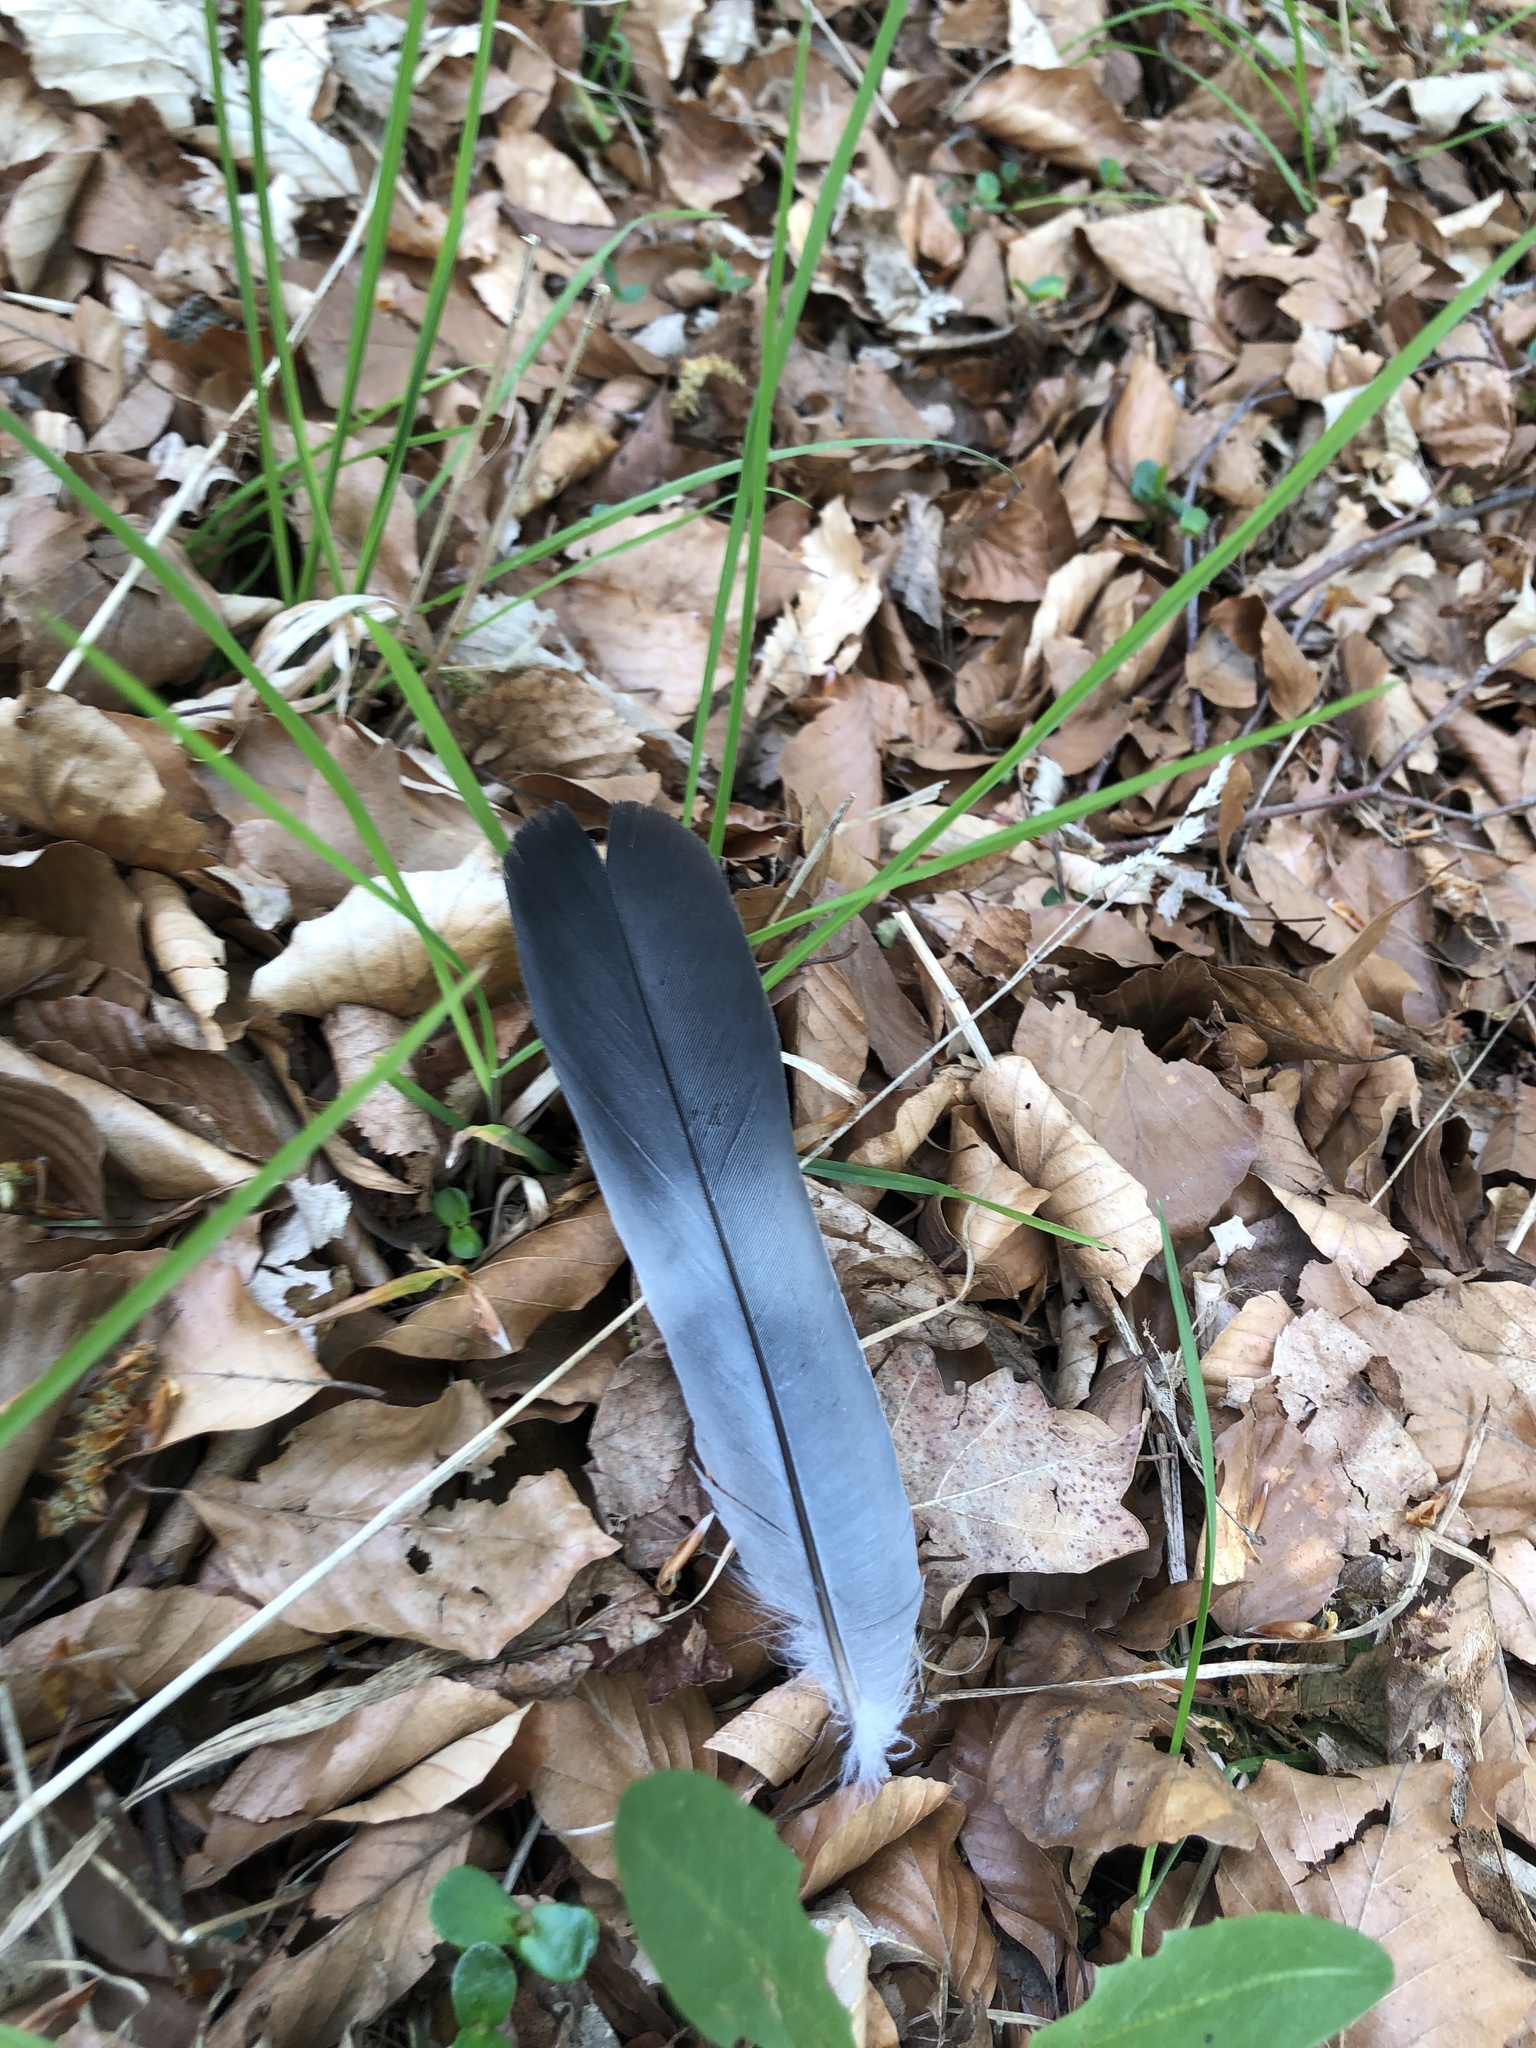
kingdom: Animalia
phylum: Chordata
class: Aves
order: Columbiformes
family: Columbidae
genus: Columba
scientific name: Columba palumbus
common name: Common wood pigeon
